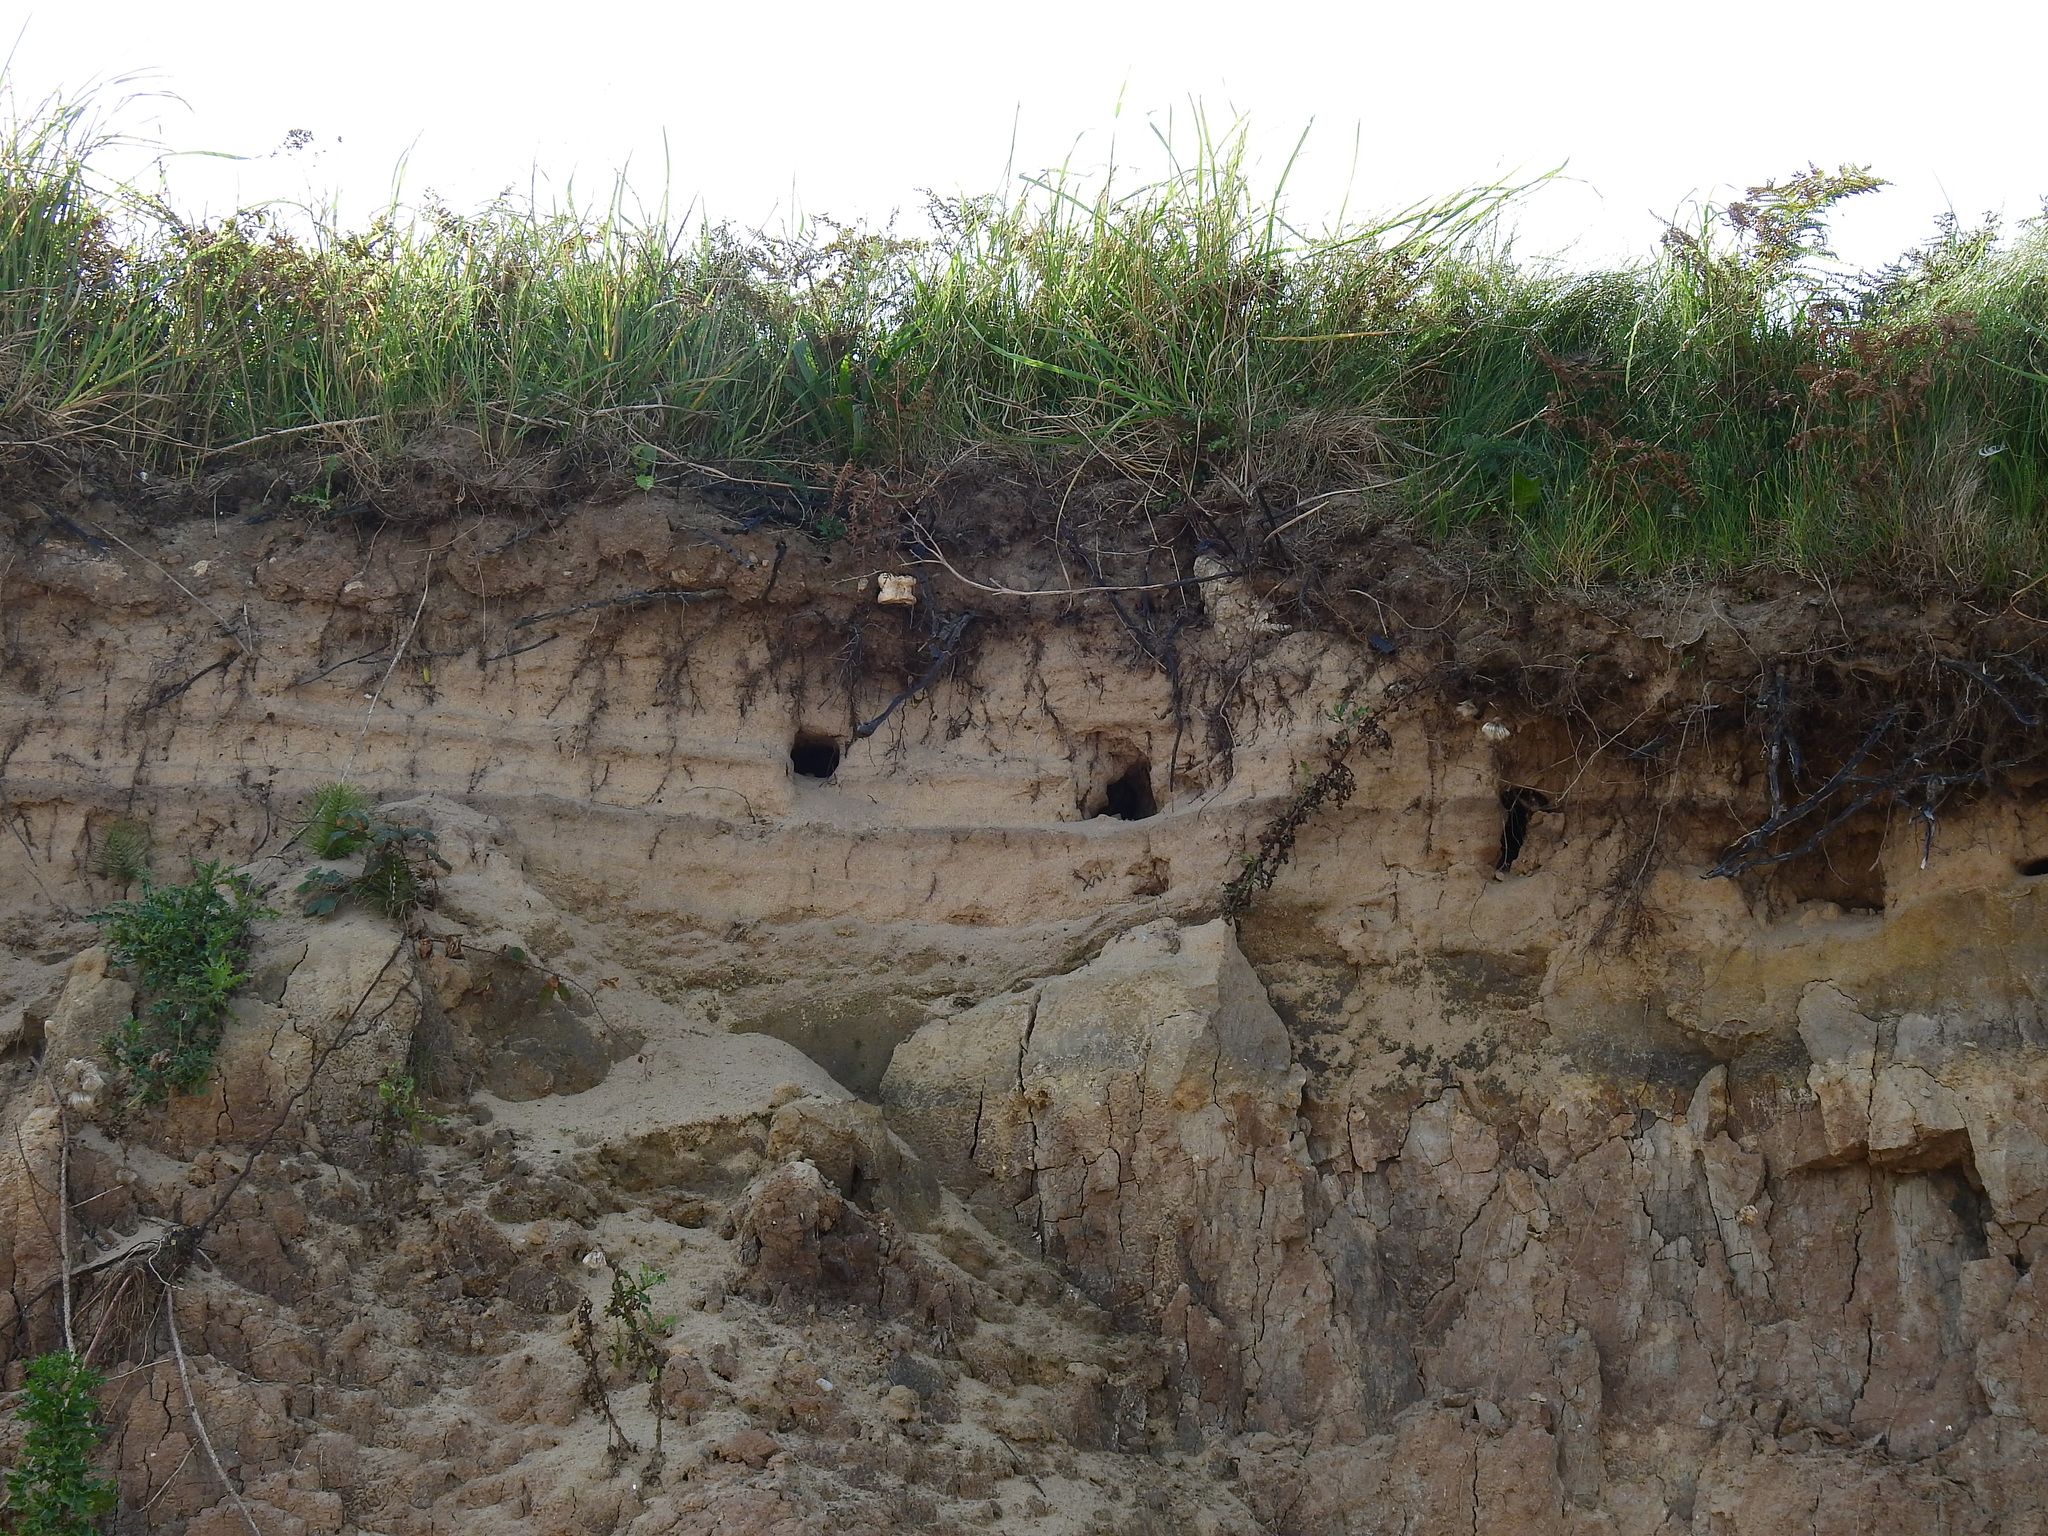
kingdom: Animalia
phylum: Chordata
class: Aves
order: Passeriformes
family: Hirundinidae
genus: Riparia
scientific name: Riparia riparia
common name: Sand martin
